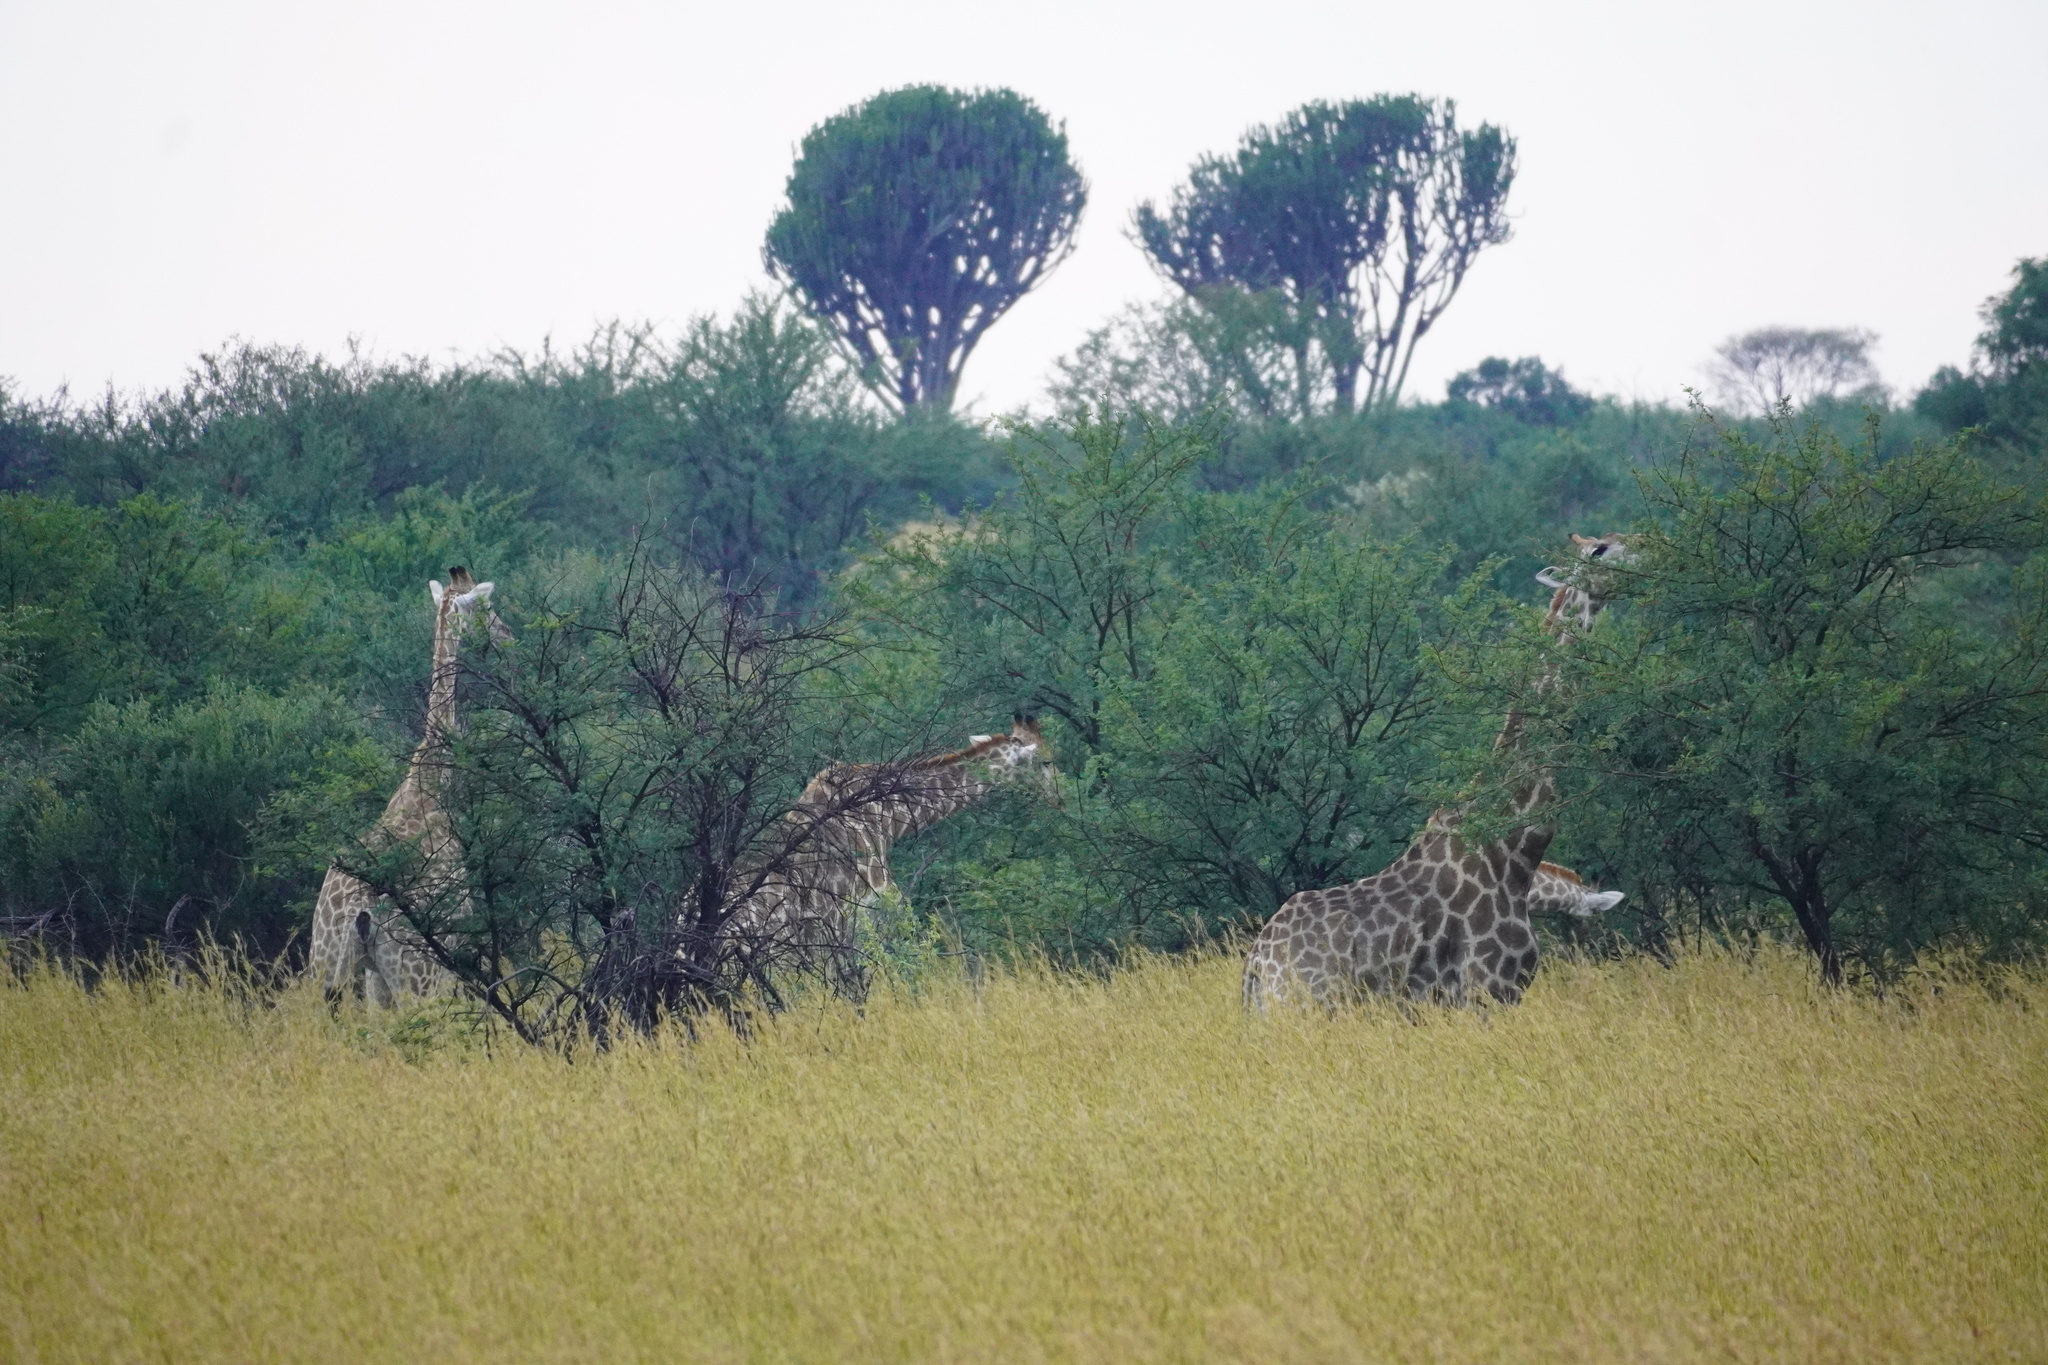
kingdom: Animalia
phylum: Chordata
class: Mammalia
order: Artiodactyla
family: Giraffidae
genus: Giraffa
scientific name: Giraffa giraffa
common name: Southern giraffe
